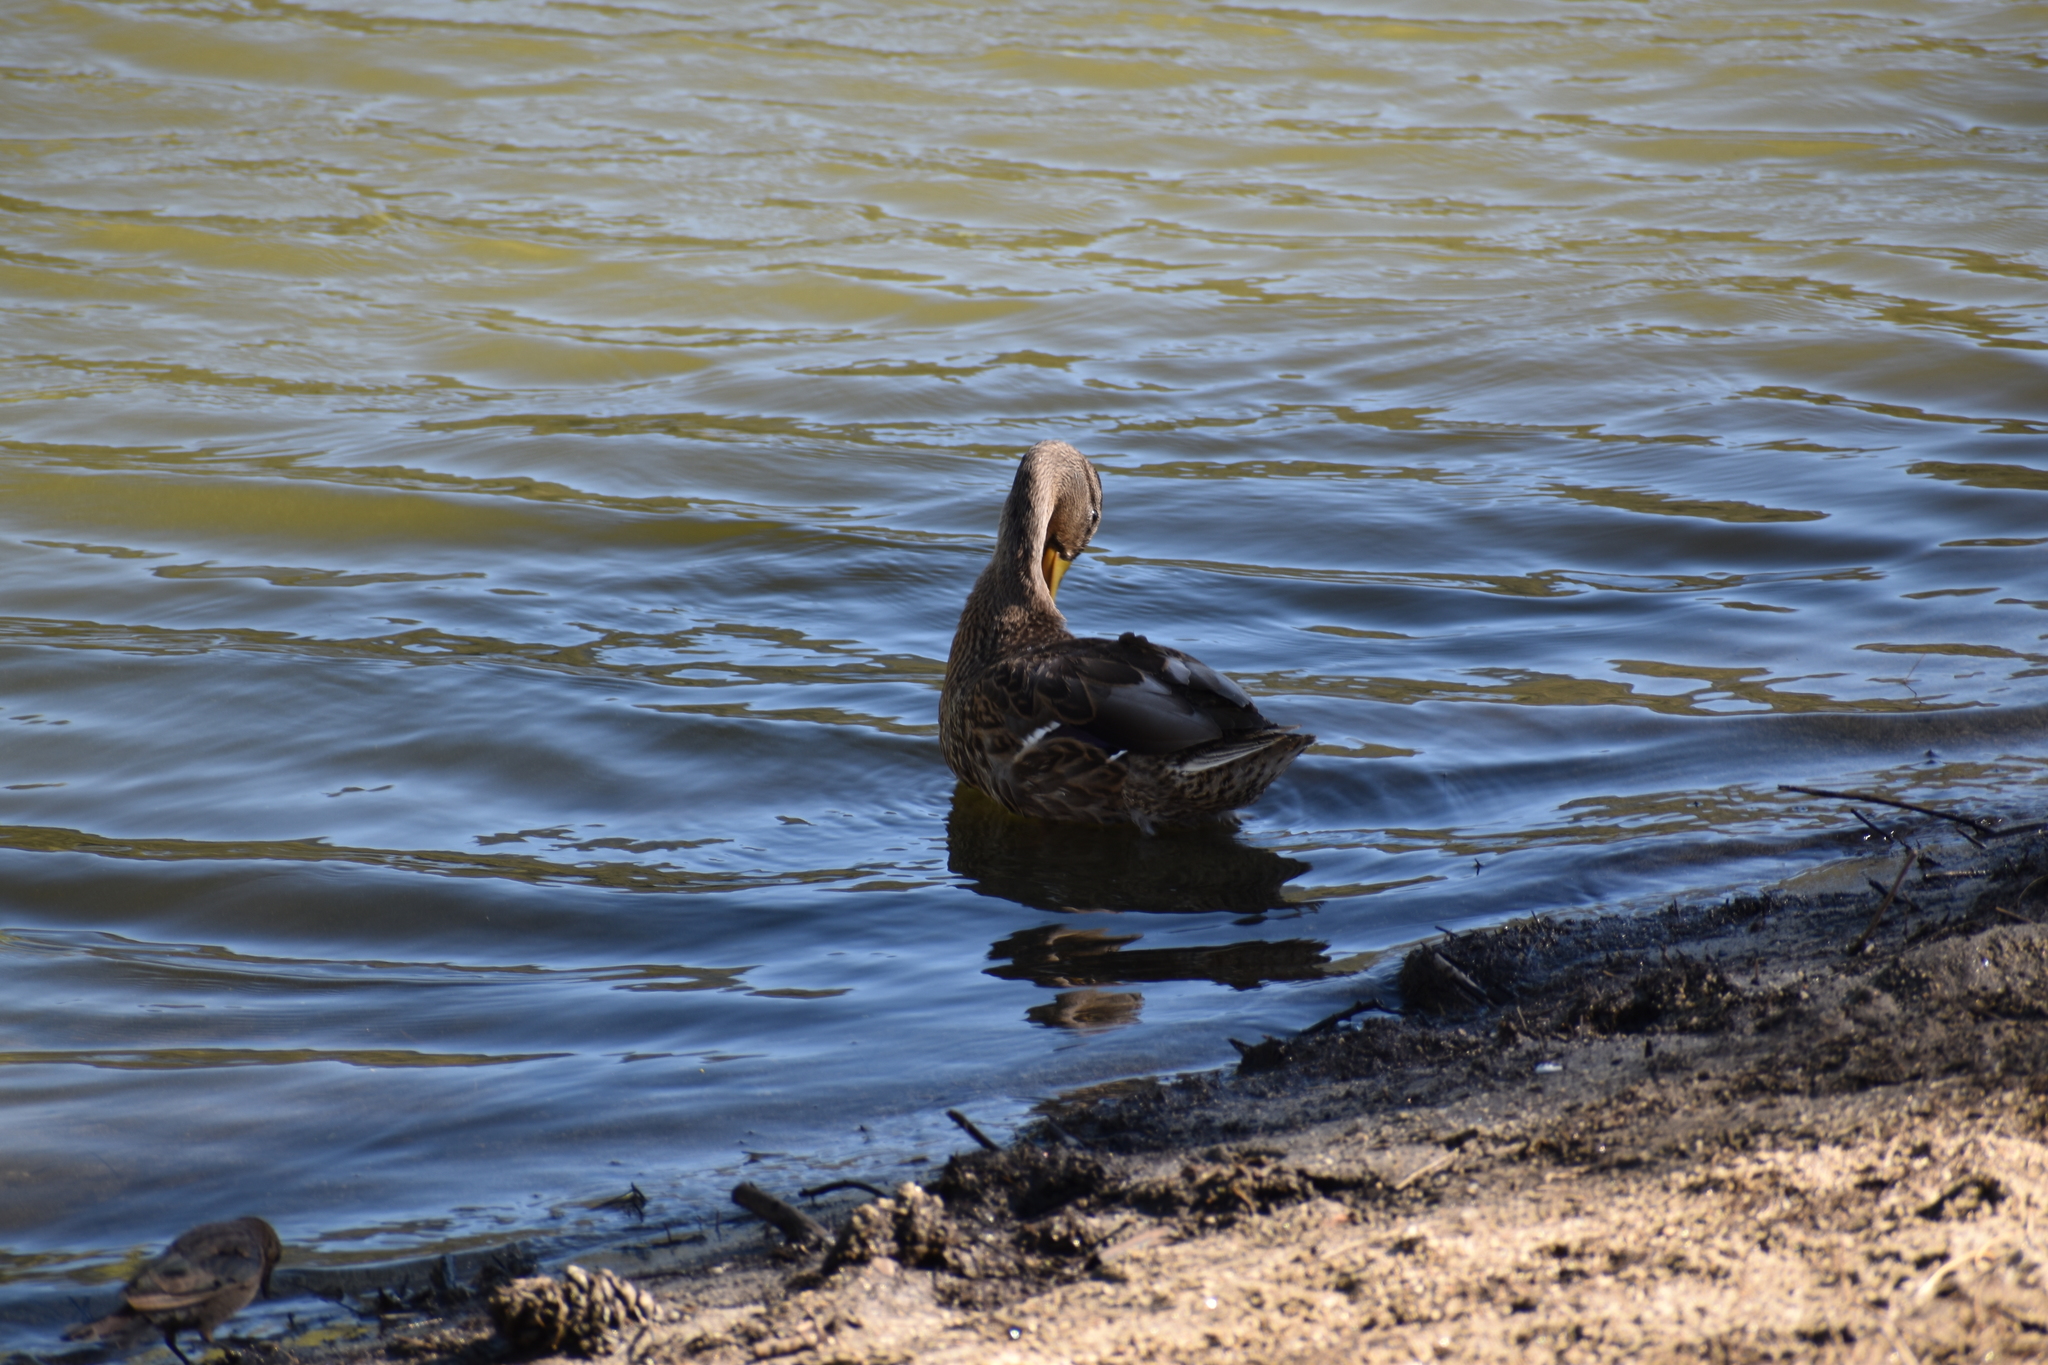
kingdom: Animalia
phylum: Chordata
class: Aves
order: Anseriformes
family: Anatidae
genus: Anas
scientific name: Anas platyrhynchos
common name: Mallard
